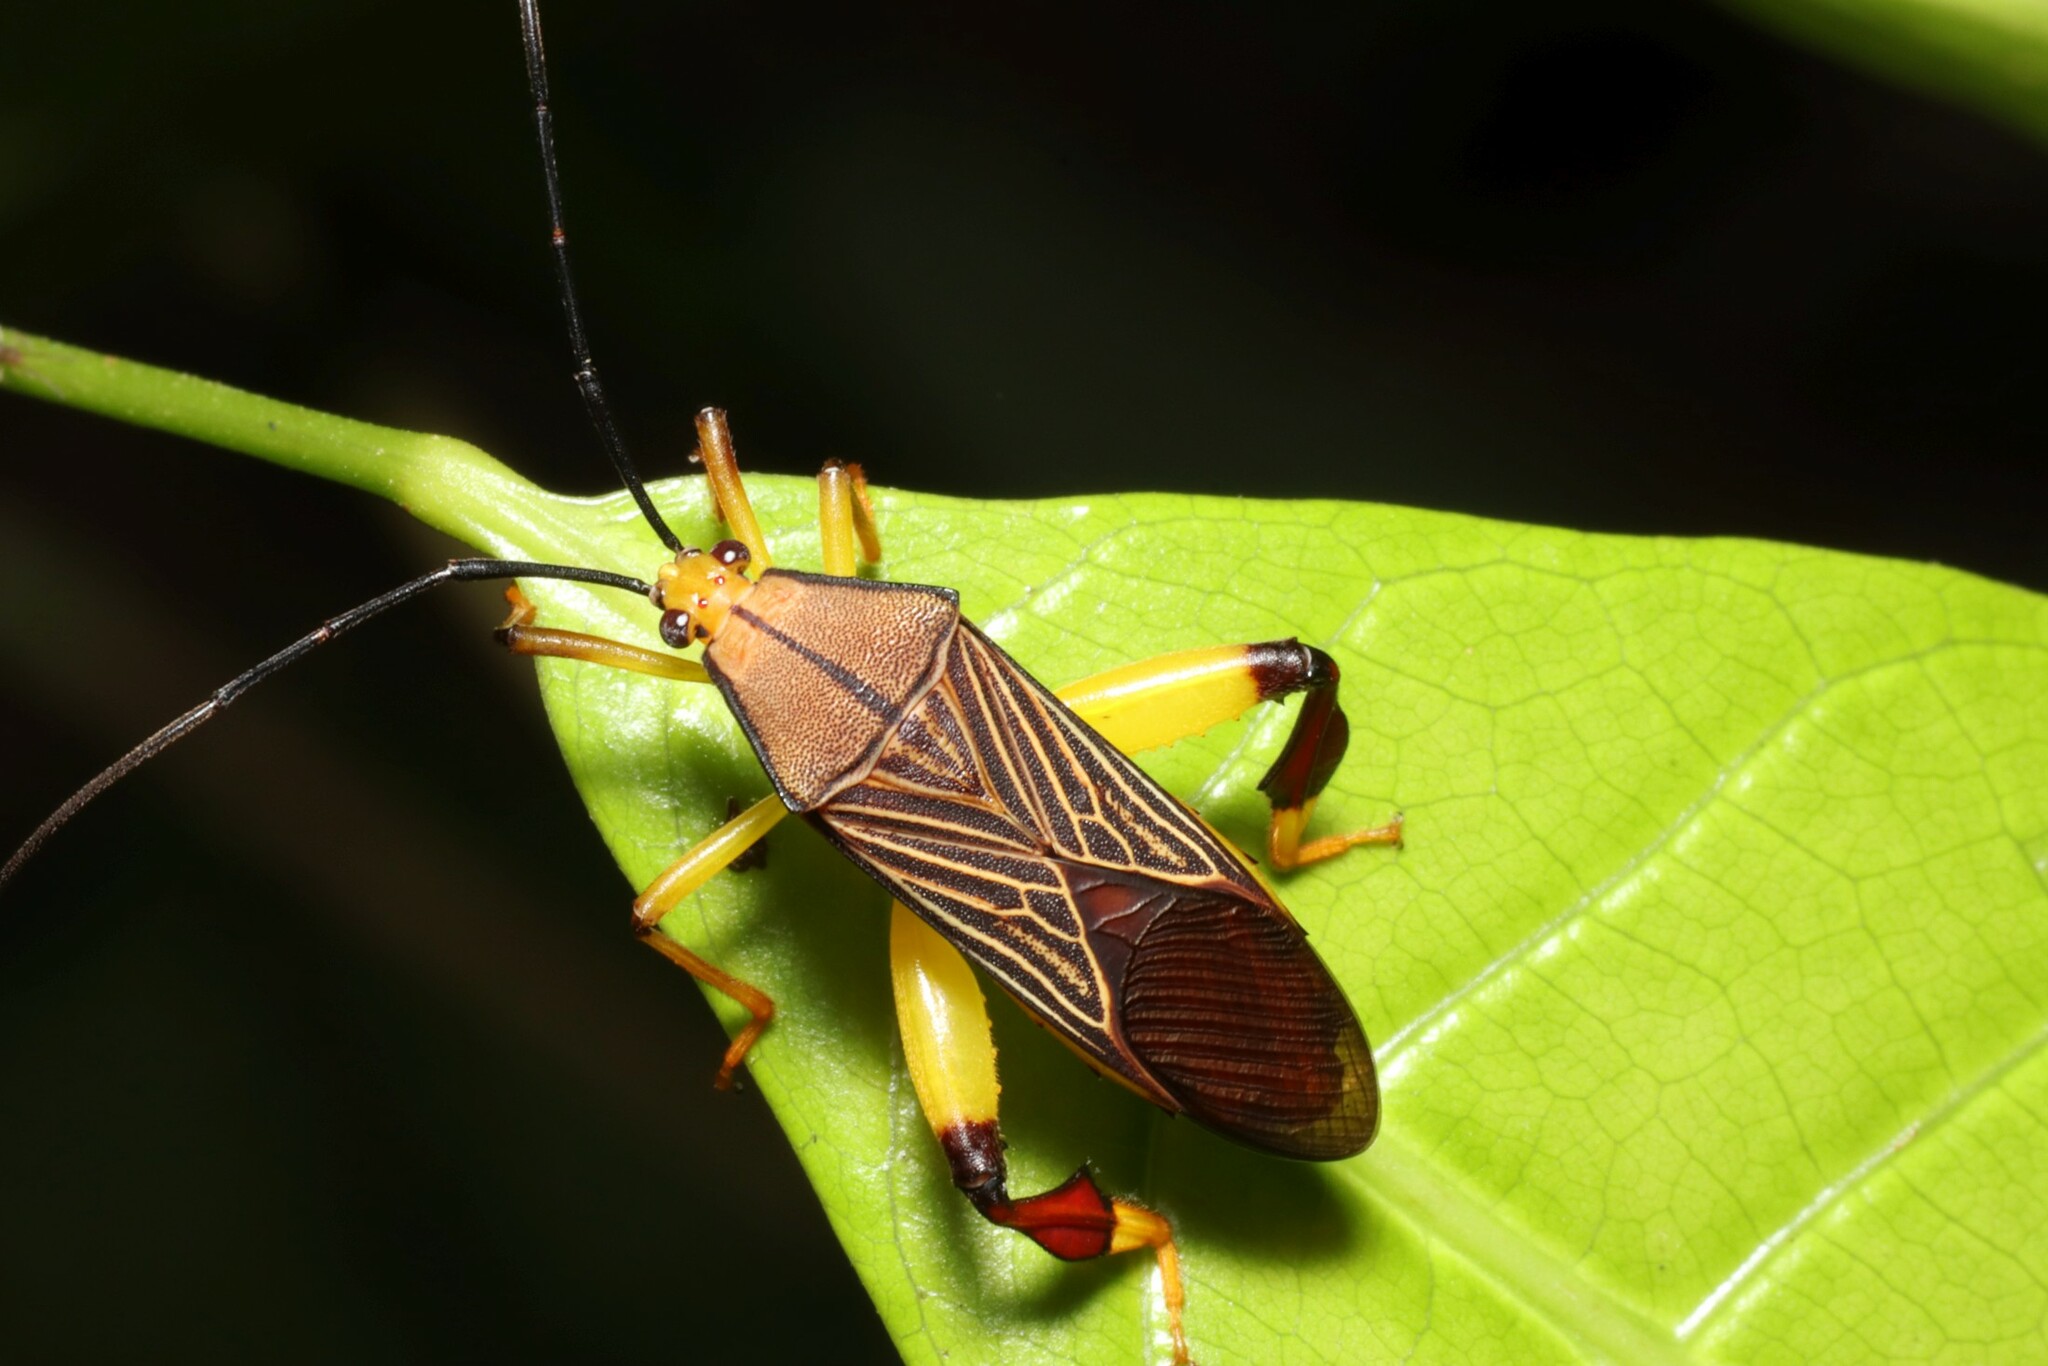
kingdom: Animalia
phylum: Arthropoda
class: Insecta
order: Hemiptera
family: Coreidae
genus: Melucha
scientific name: Melucha lineatella
